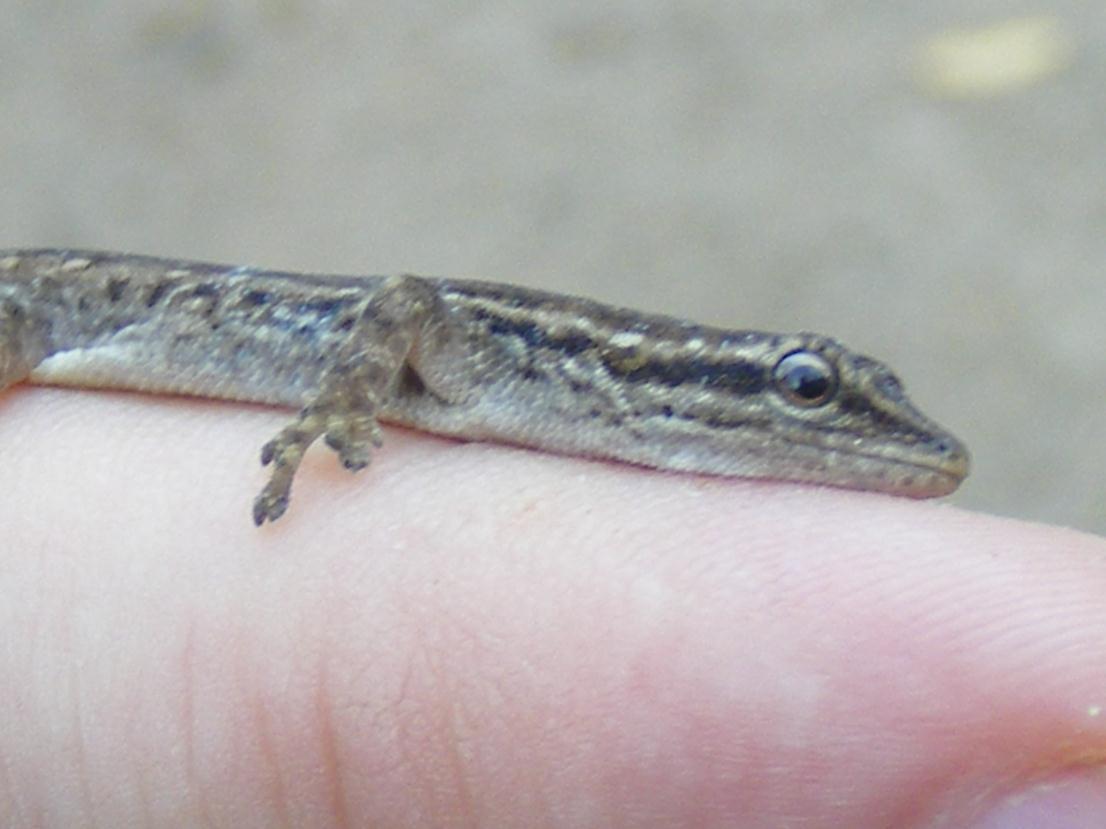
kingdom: Animalia
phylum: Chordata
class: Squamata
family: Gekkonidae
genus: Lygodactylus
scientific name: Lygodactylus capensis
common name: Cape dwarf gecko
